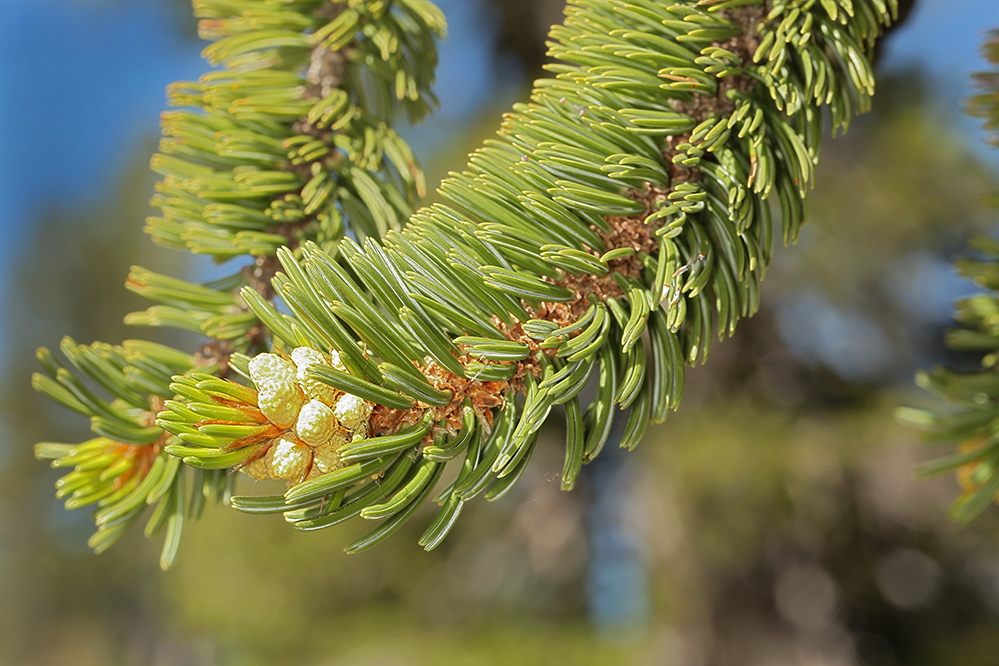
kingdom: Plantae
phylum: Tracheophyta
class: Pinopsida
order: Pinales
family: Pinaceae
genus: Pinus
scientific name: Pinus balfouriana
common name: Foxtail pine
